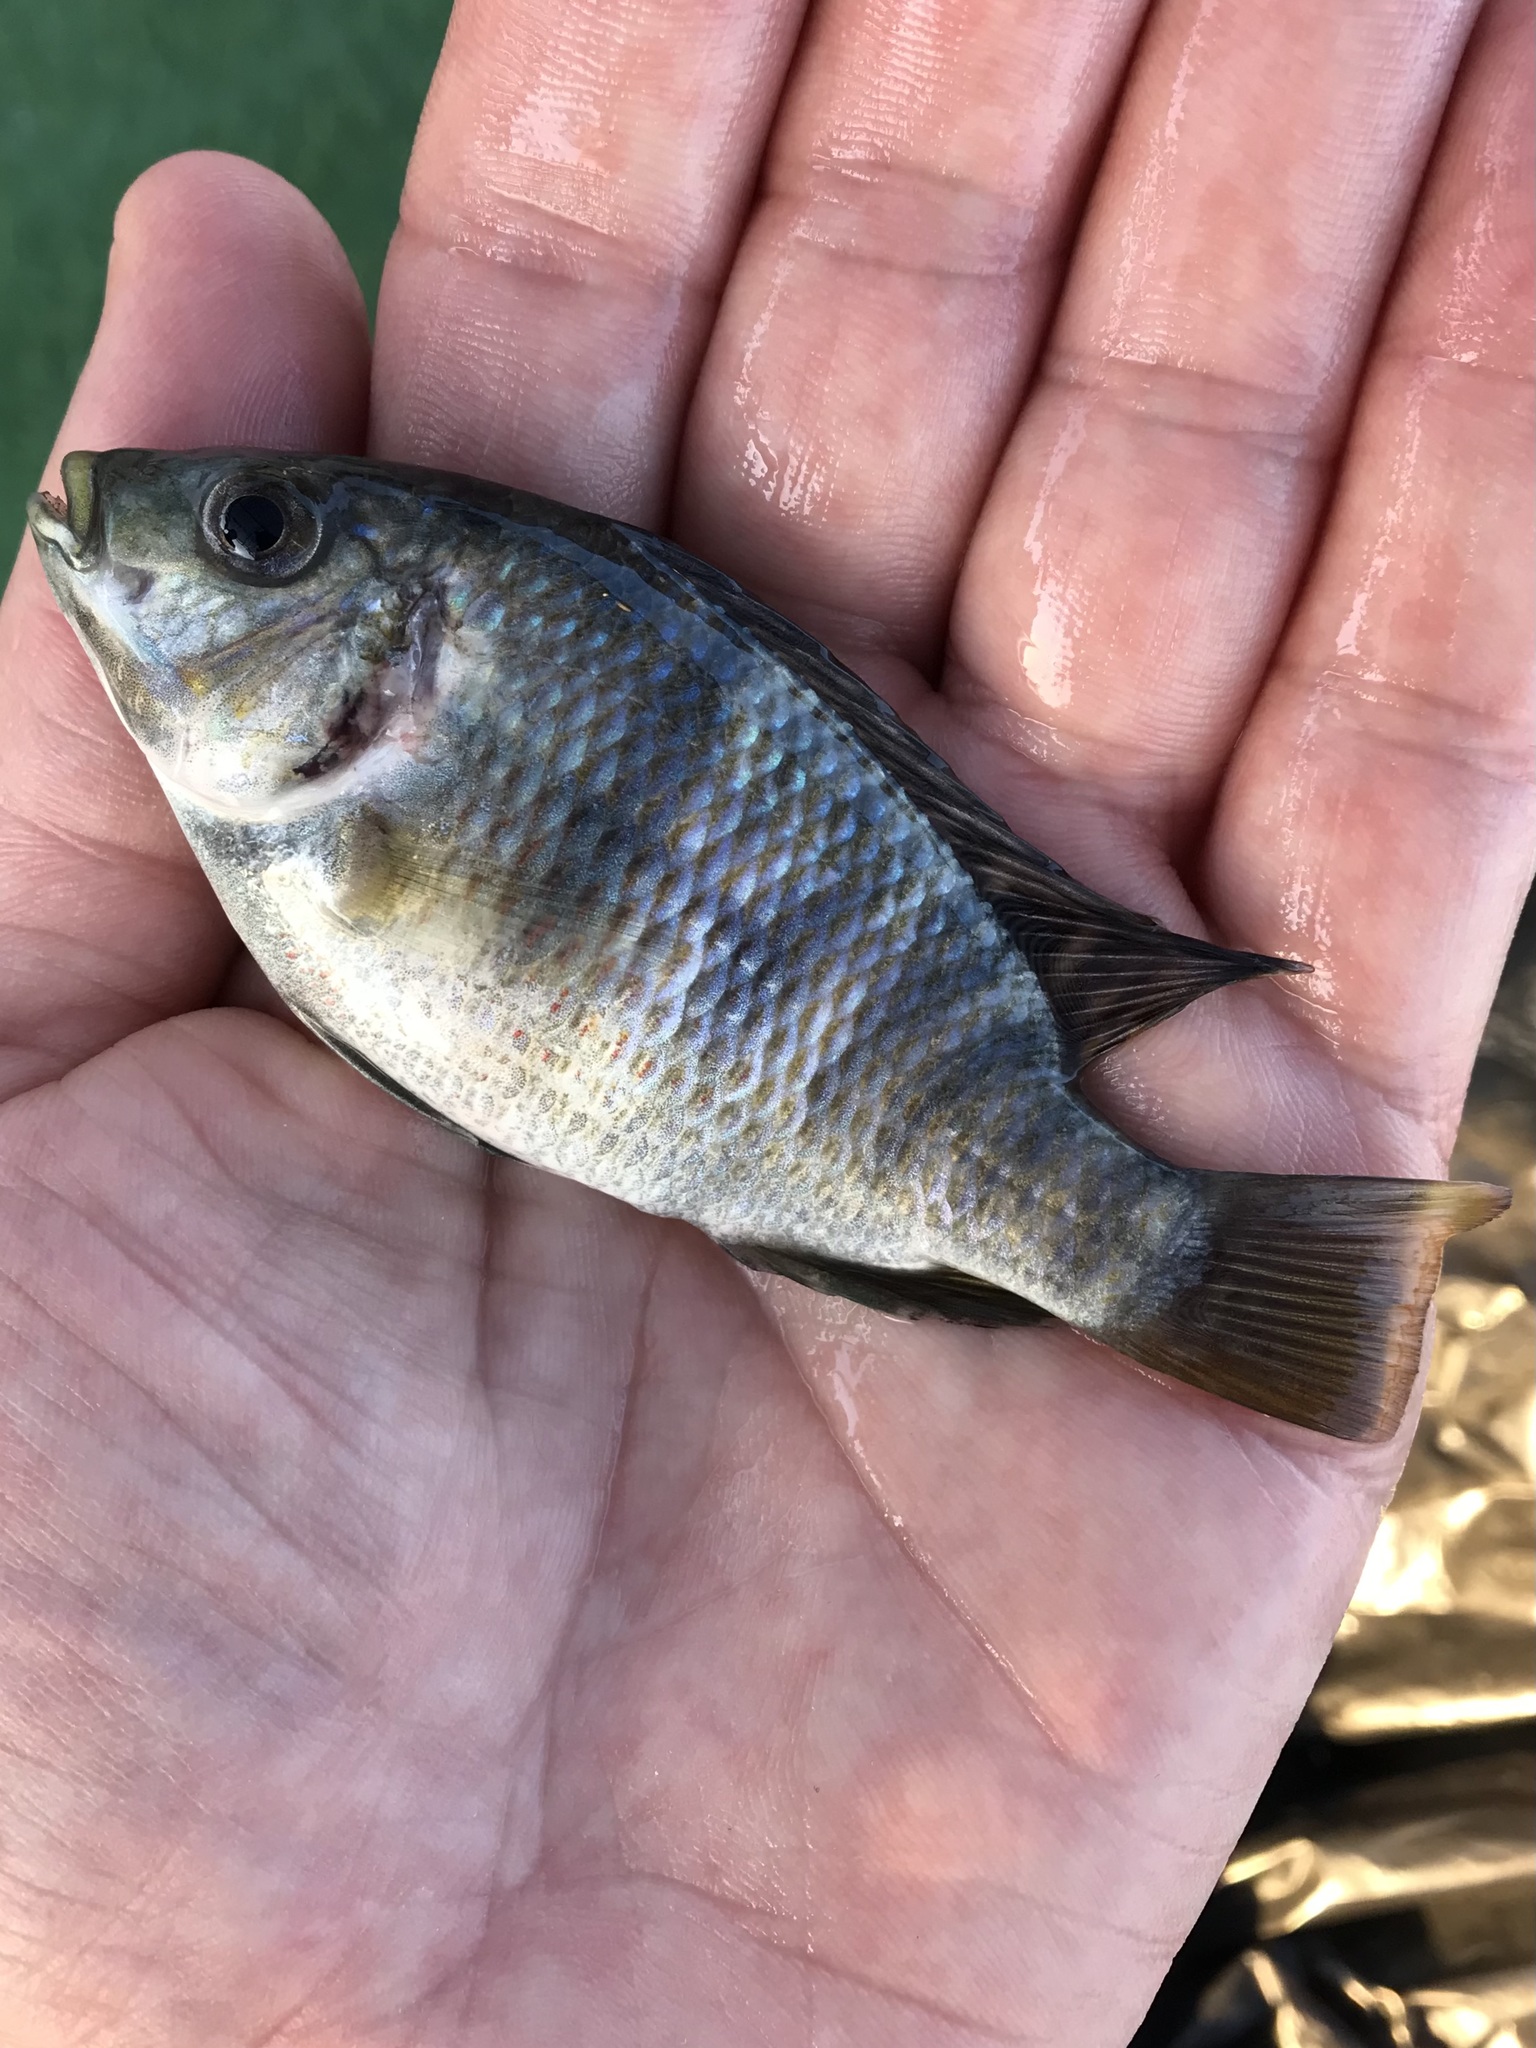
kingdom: Animalia
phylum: Chordata
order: Perciformes
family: Cichlidae
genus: Coptodon
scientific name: Coptodon zillii
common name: Redbelly tilapia
